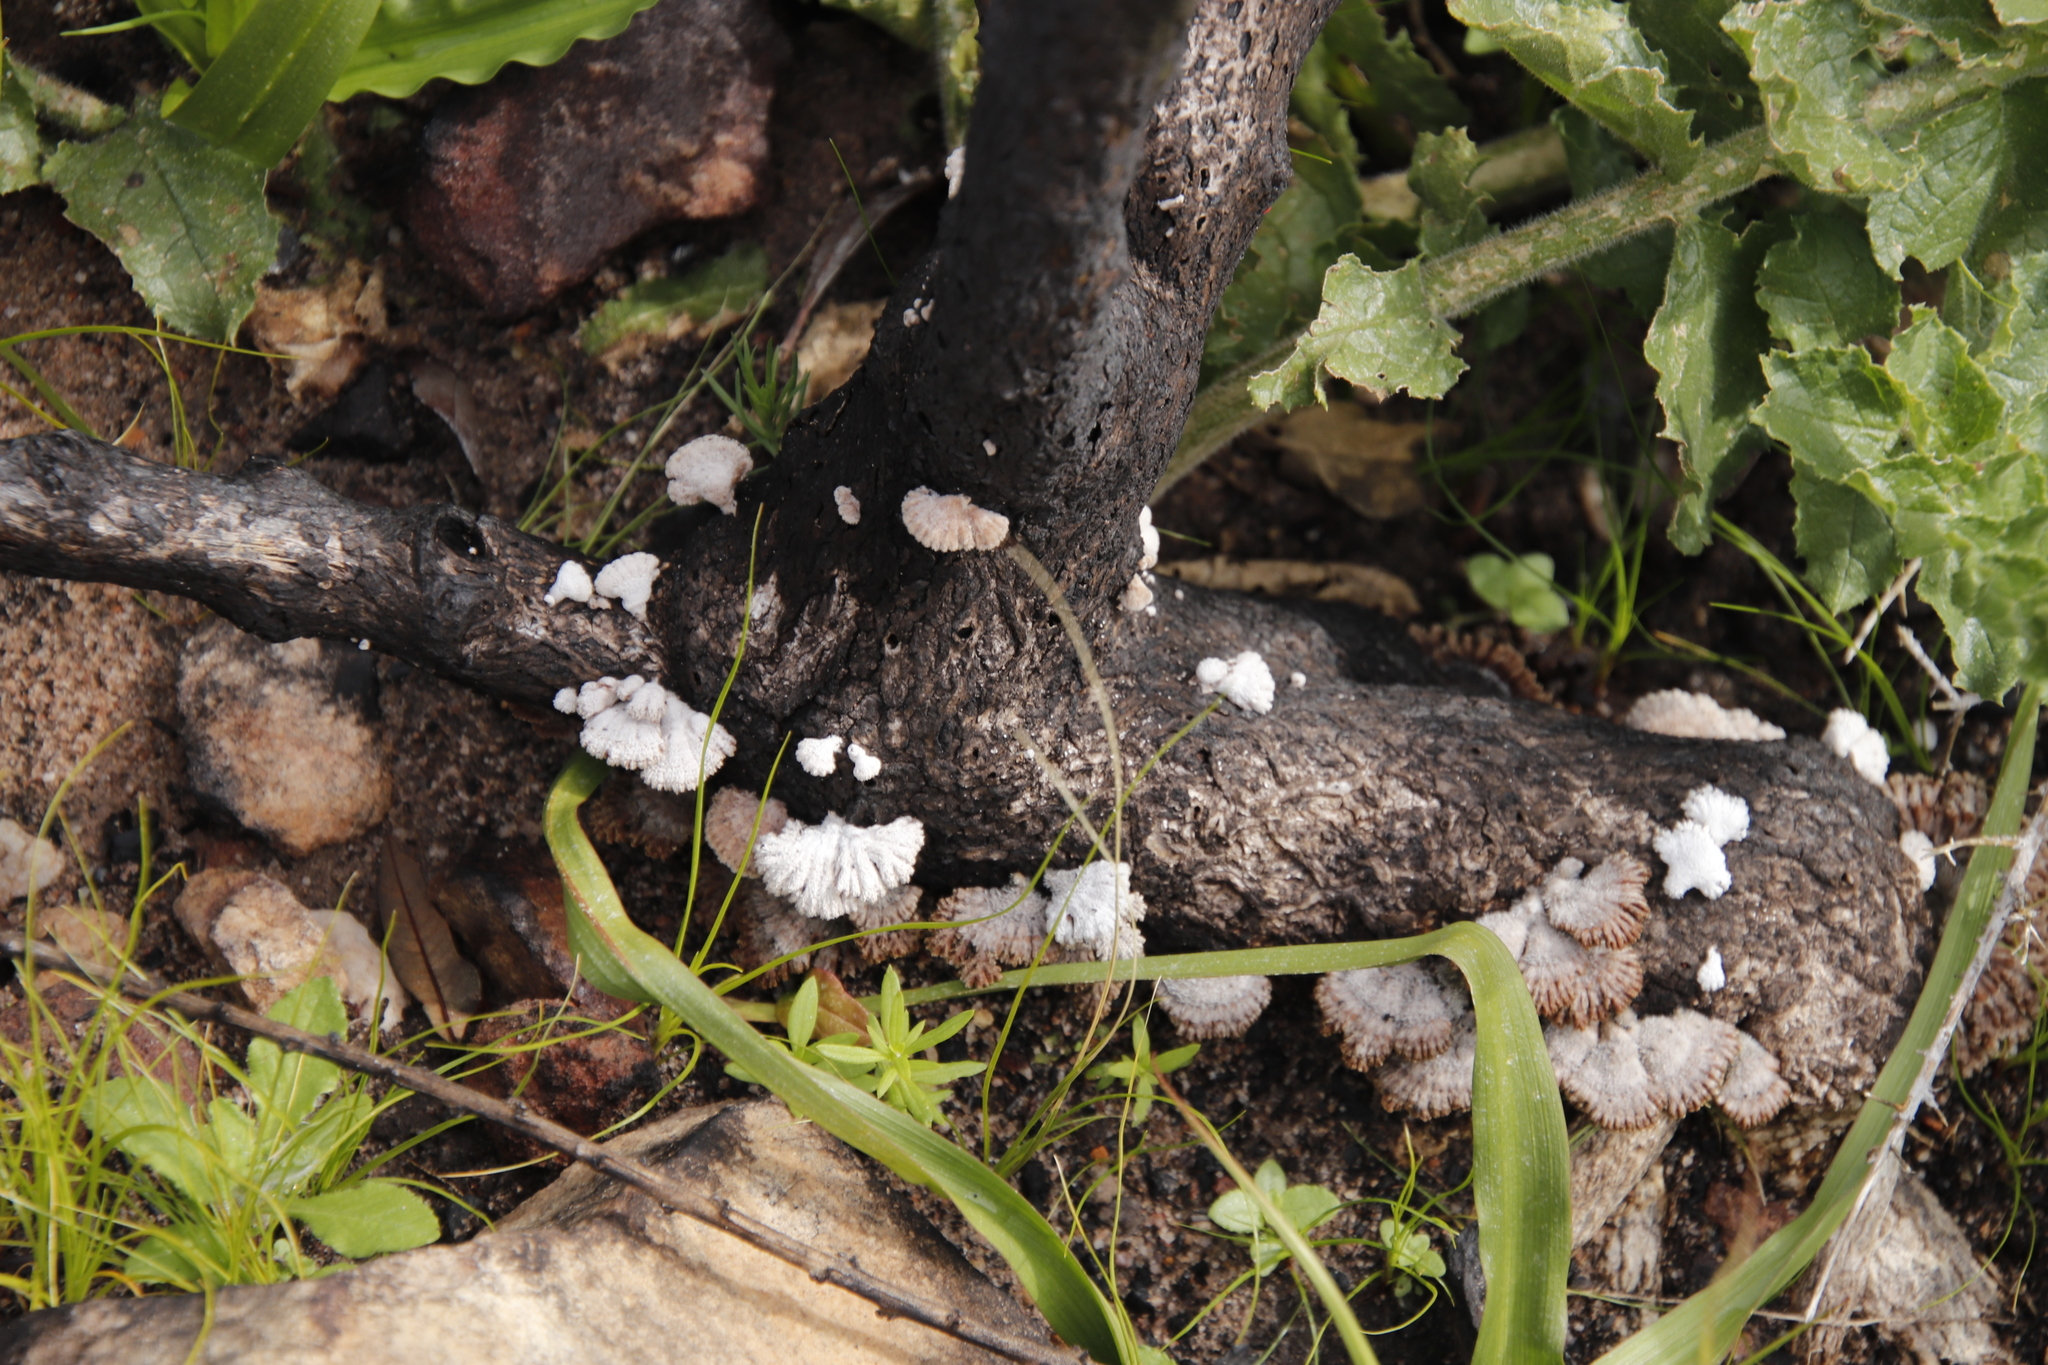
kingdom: Fungi
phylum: Basidiomycota
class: Agaricomycetes
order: Agaricales
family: Schizophyllaceae
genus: Schizophyllum
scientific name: Schizophyllum commune
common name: Common porecrust
